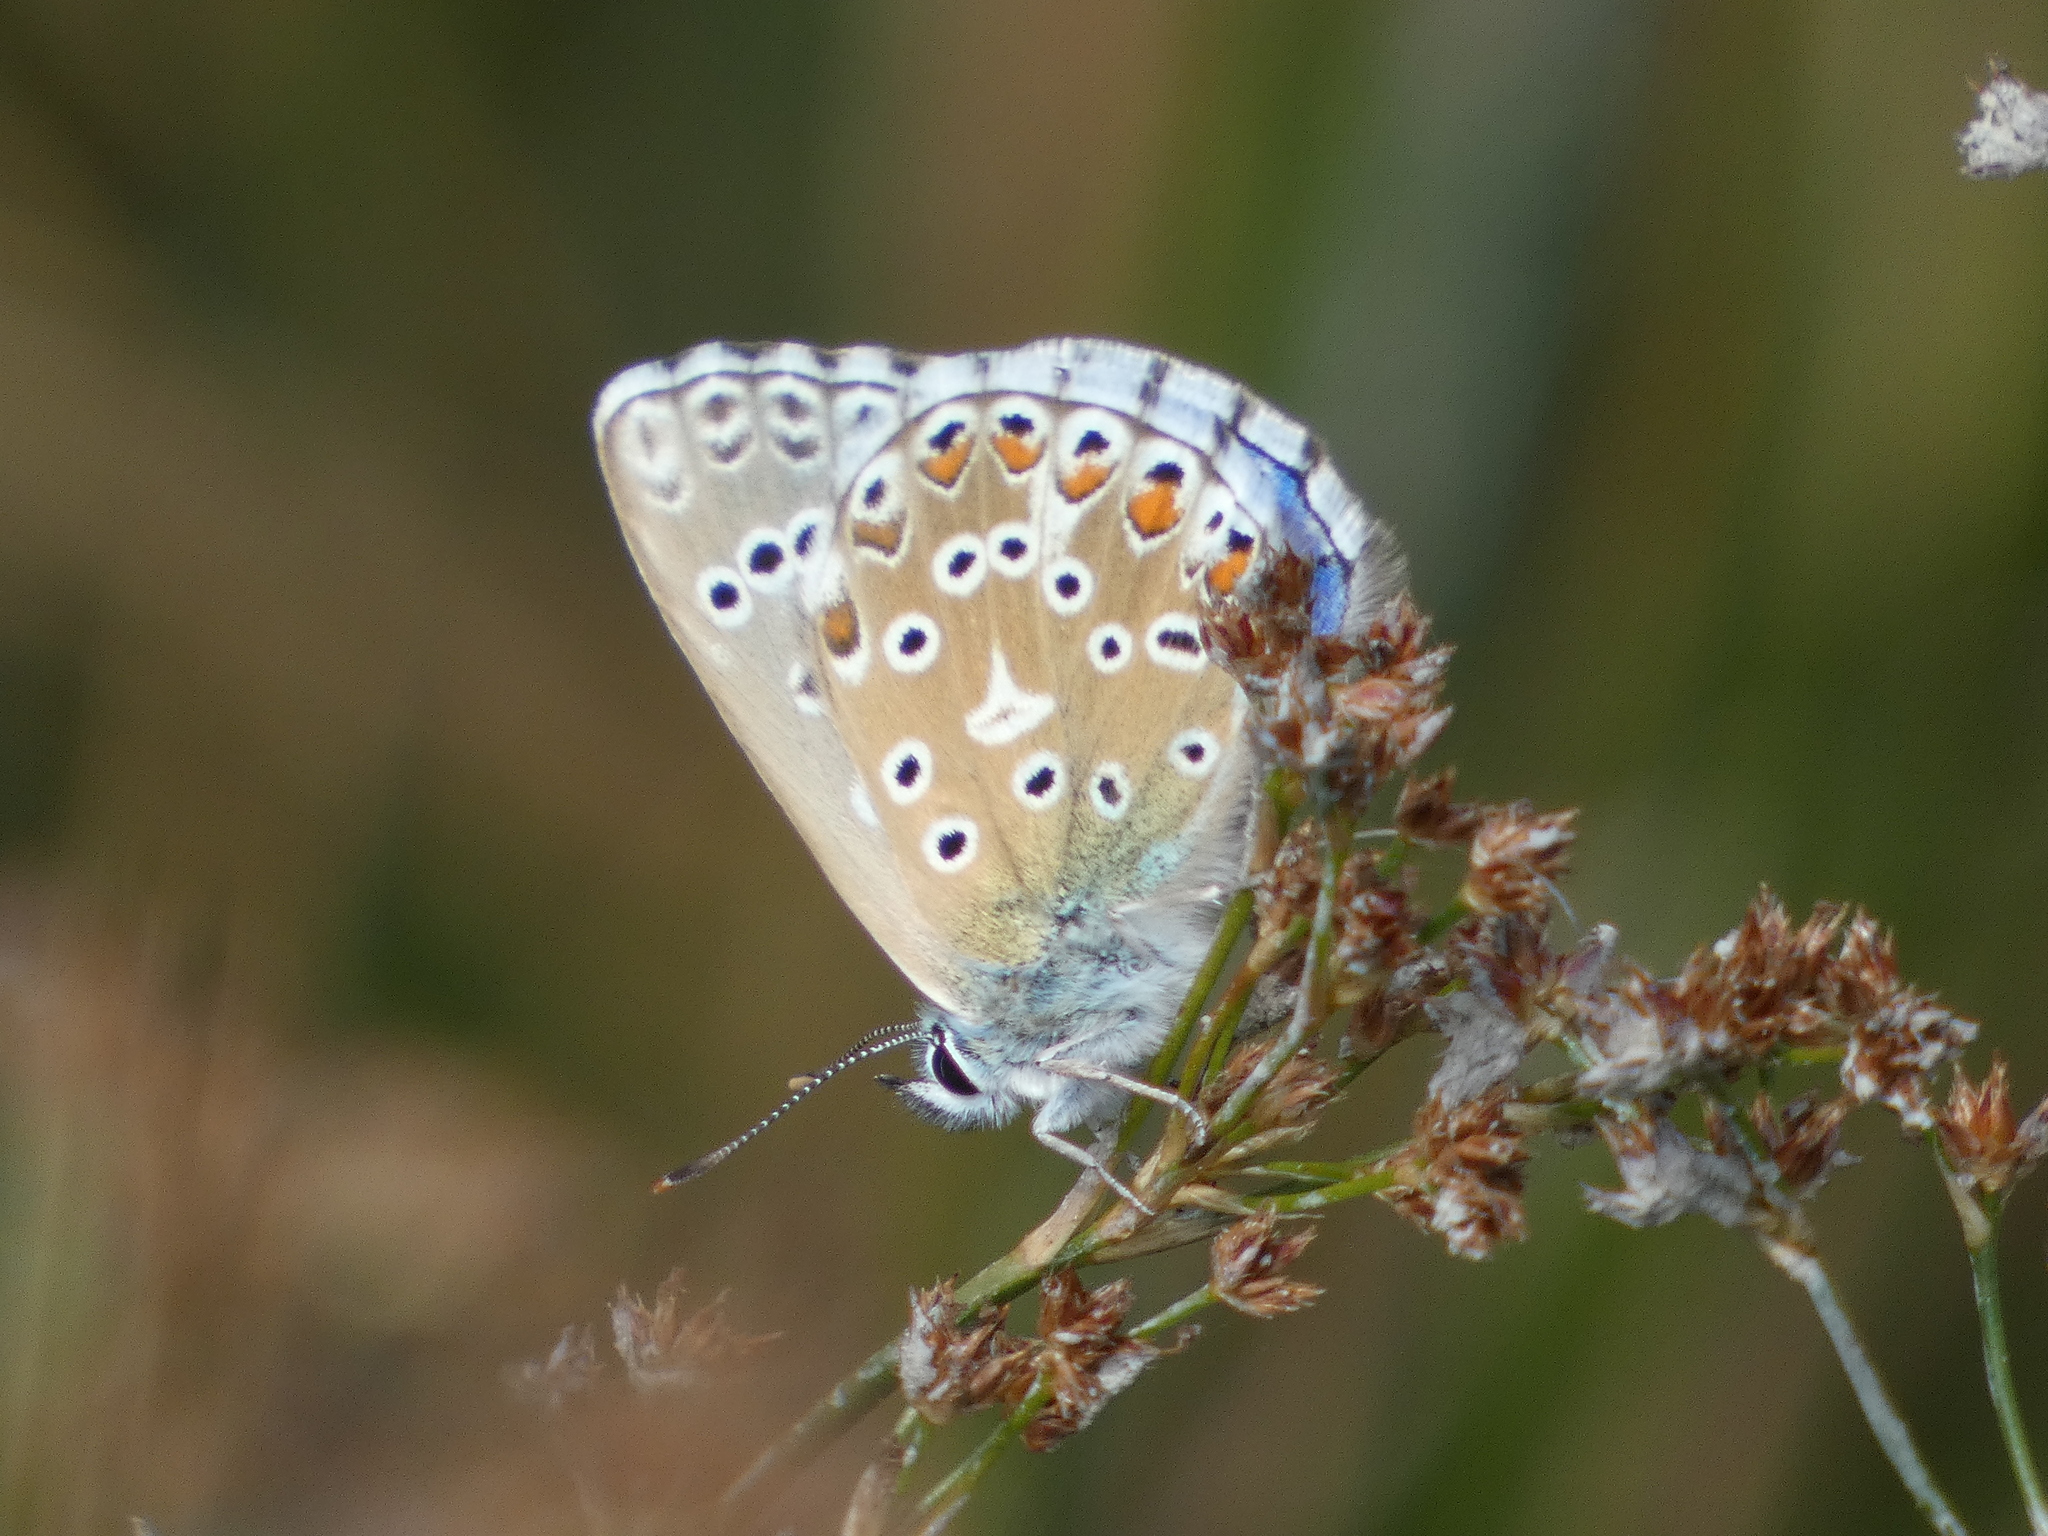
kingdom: Animalia
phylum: Arthropoda
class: Insecta
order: Lepidoptera
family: Lycaenidae
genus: Lysandra
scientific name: Lysandra bellargus
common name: Adonis blue
